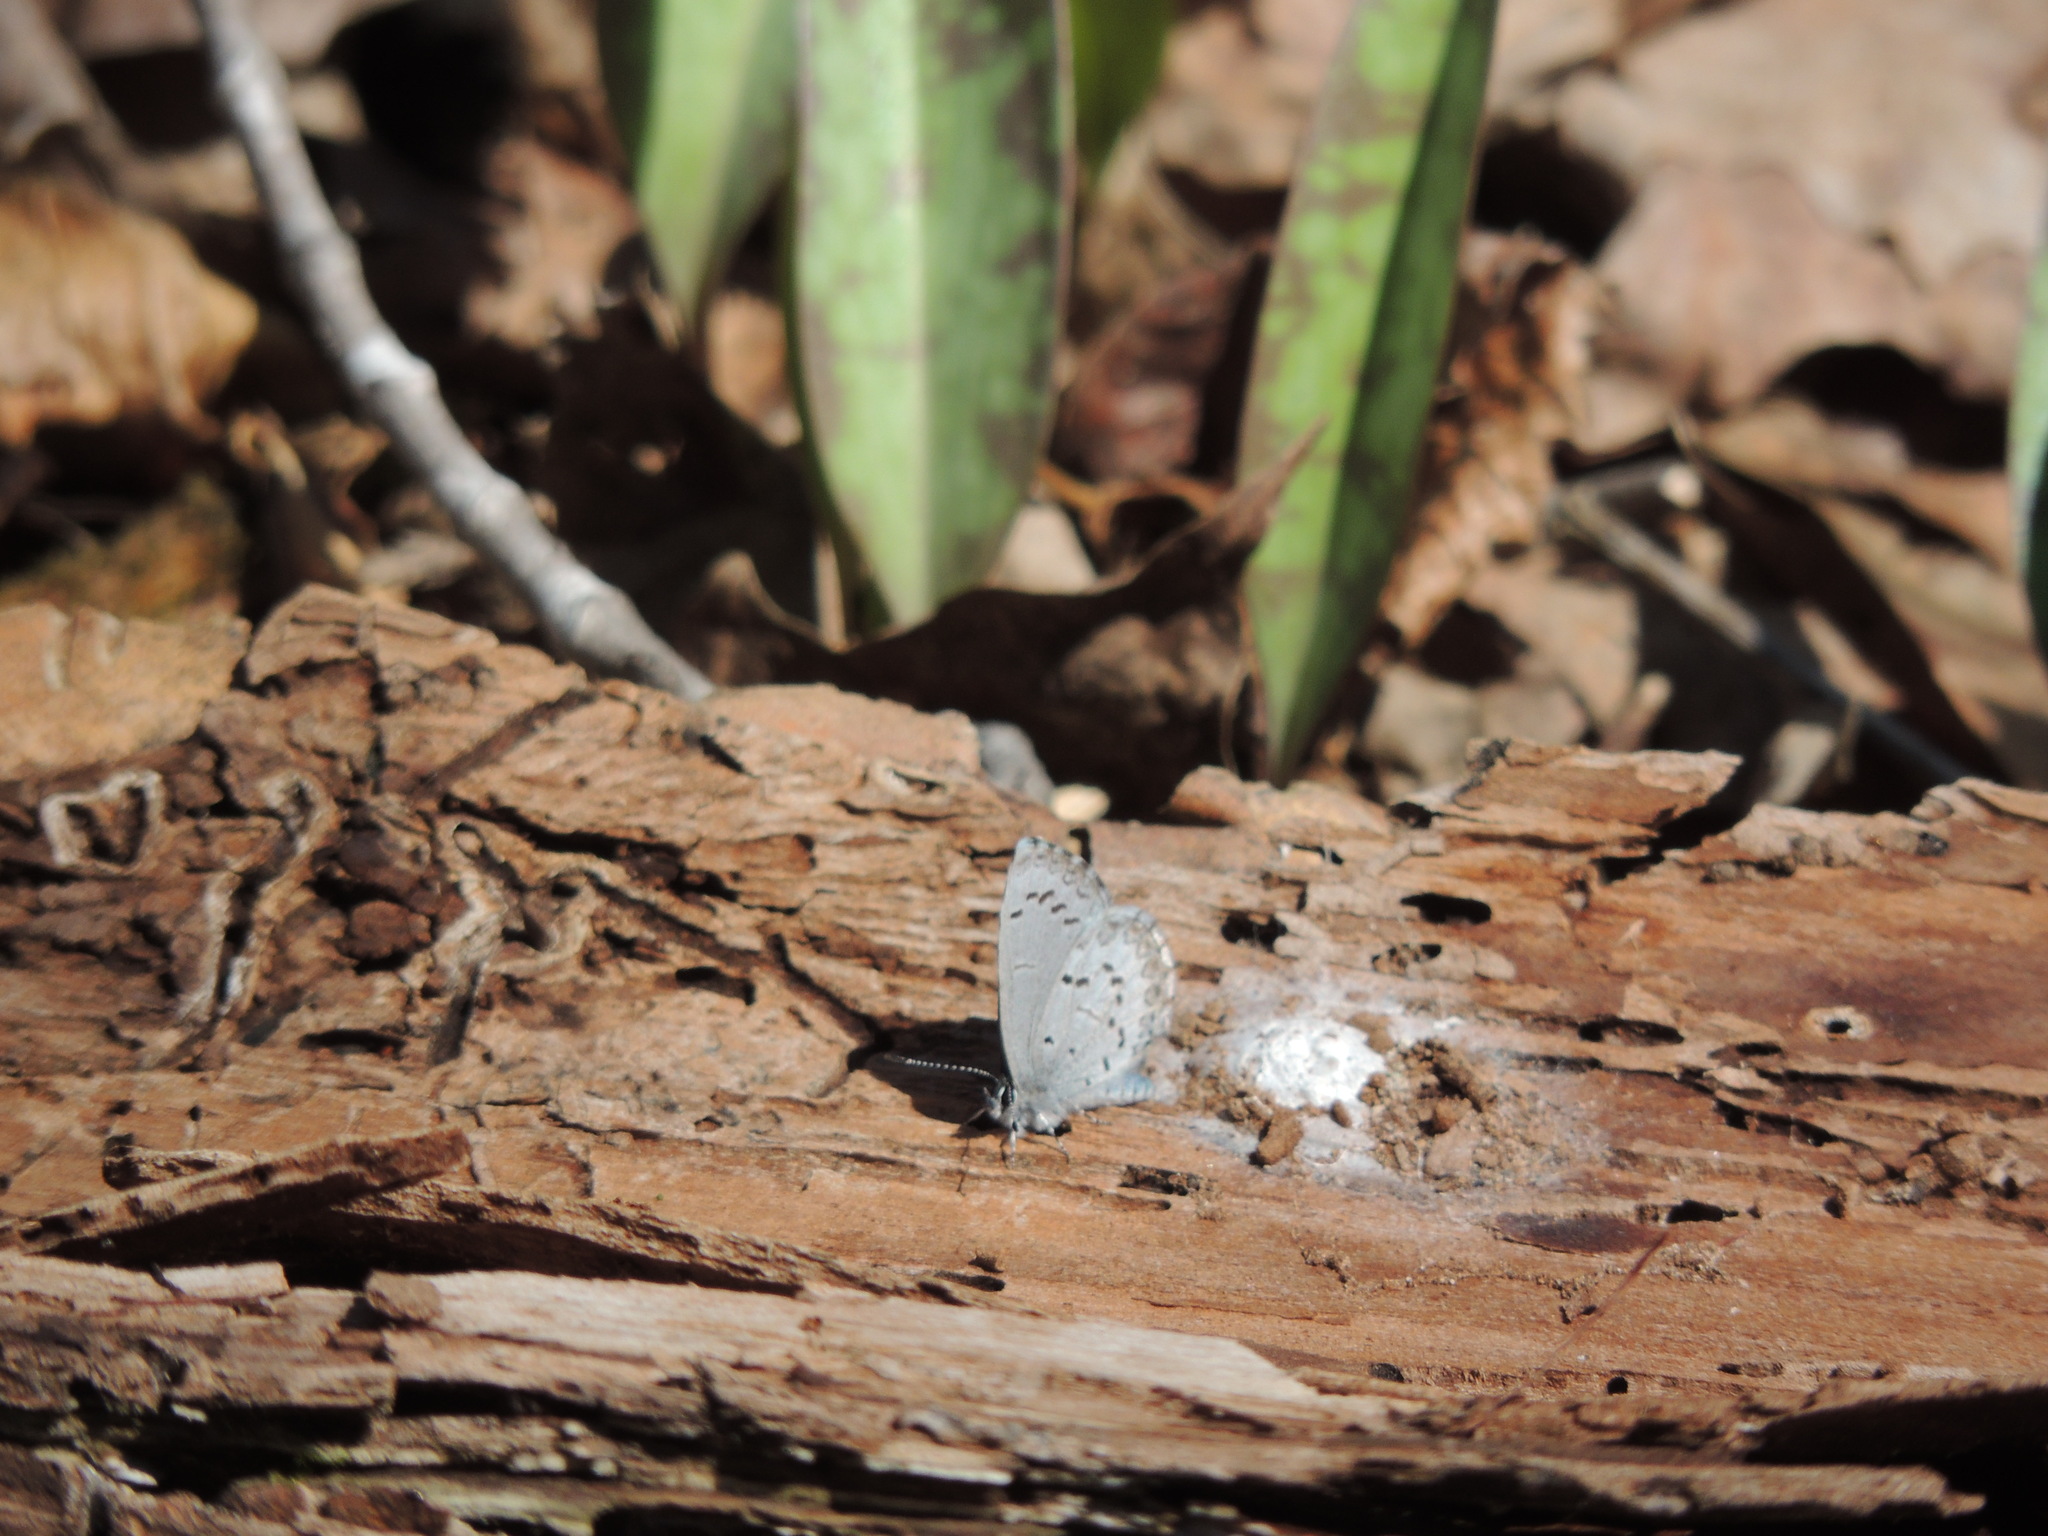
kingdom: Animalia
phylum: Arthropoda
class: Insecta
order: Lepidoptera
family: Lycaenidae
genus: Celastrina
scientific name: Celastrina lucia
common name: Lucia azure
